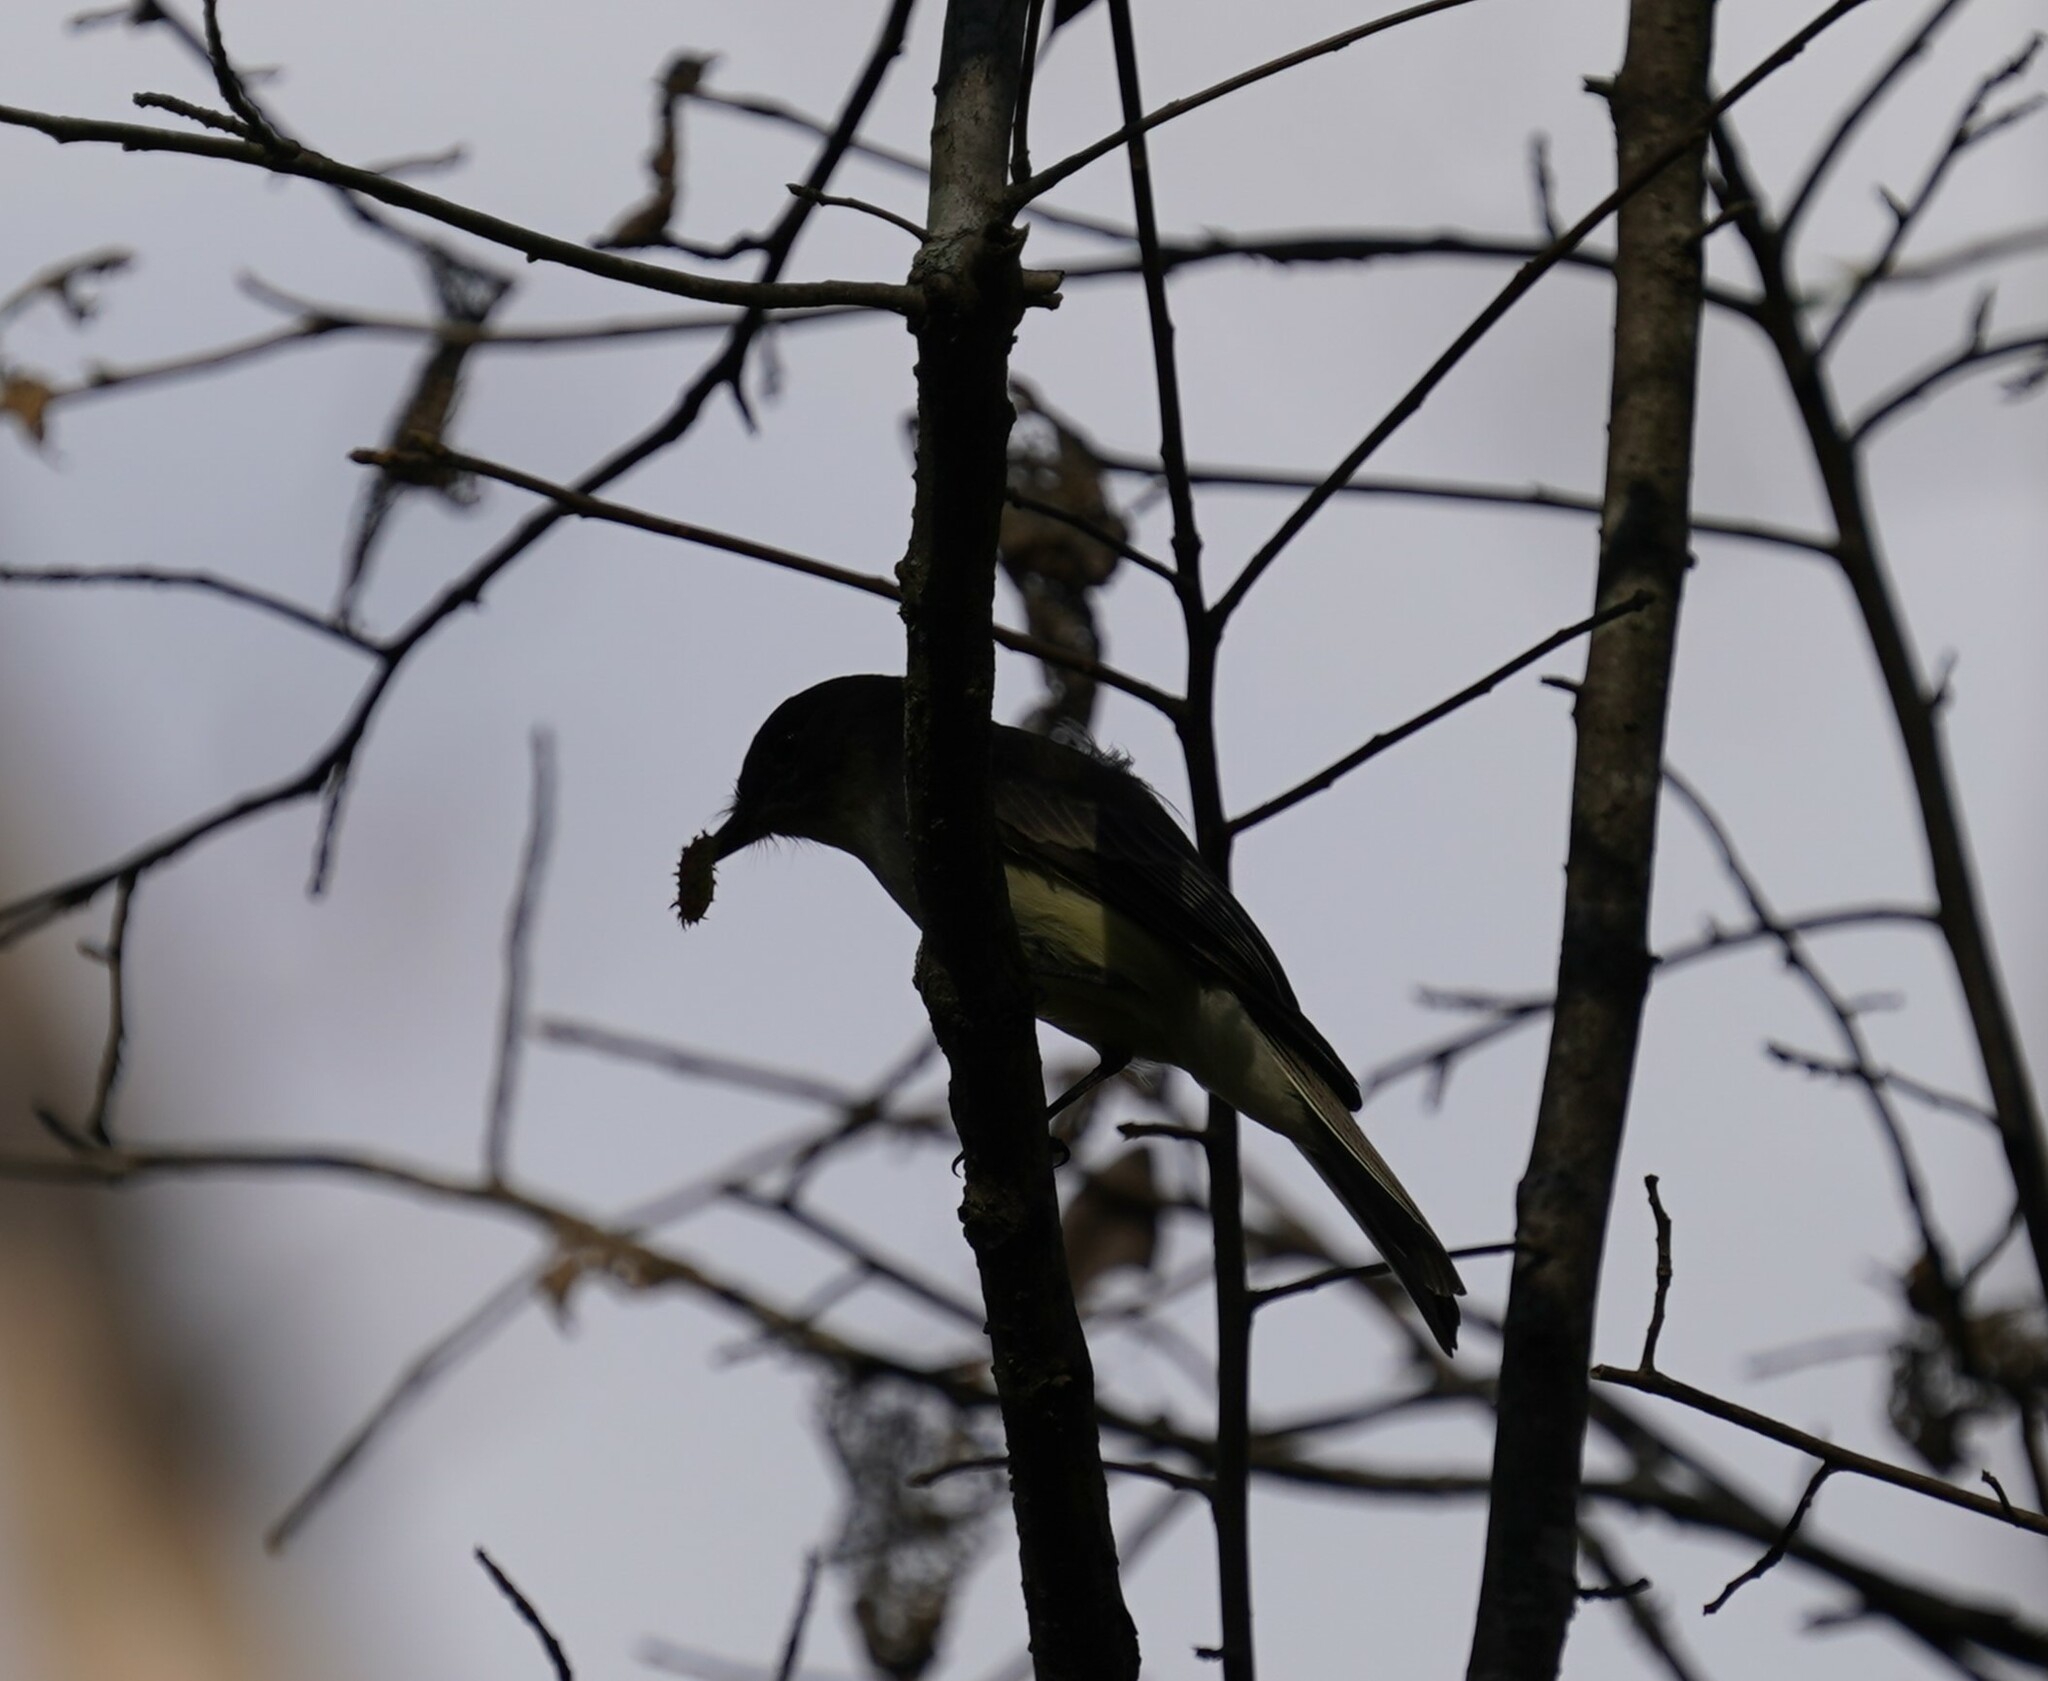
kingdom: Animalia
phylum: Chordata
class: Aves
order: Passeriformes
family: Tyrannidae
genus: Sayornis
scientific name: Sayornis phoebe
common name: Eastern phoebe
